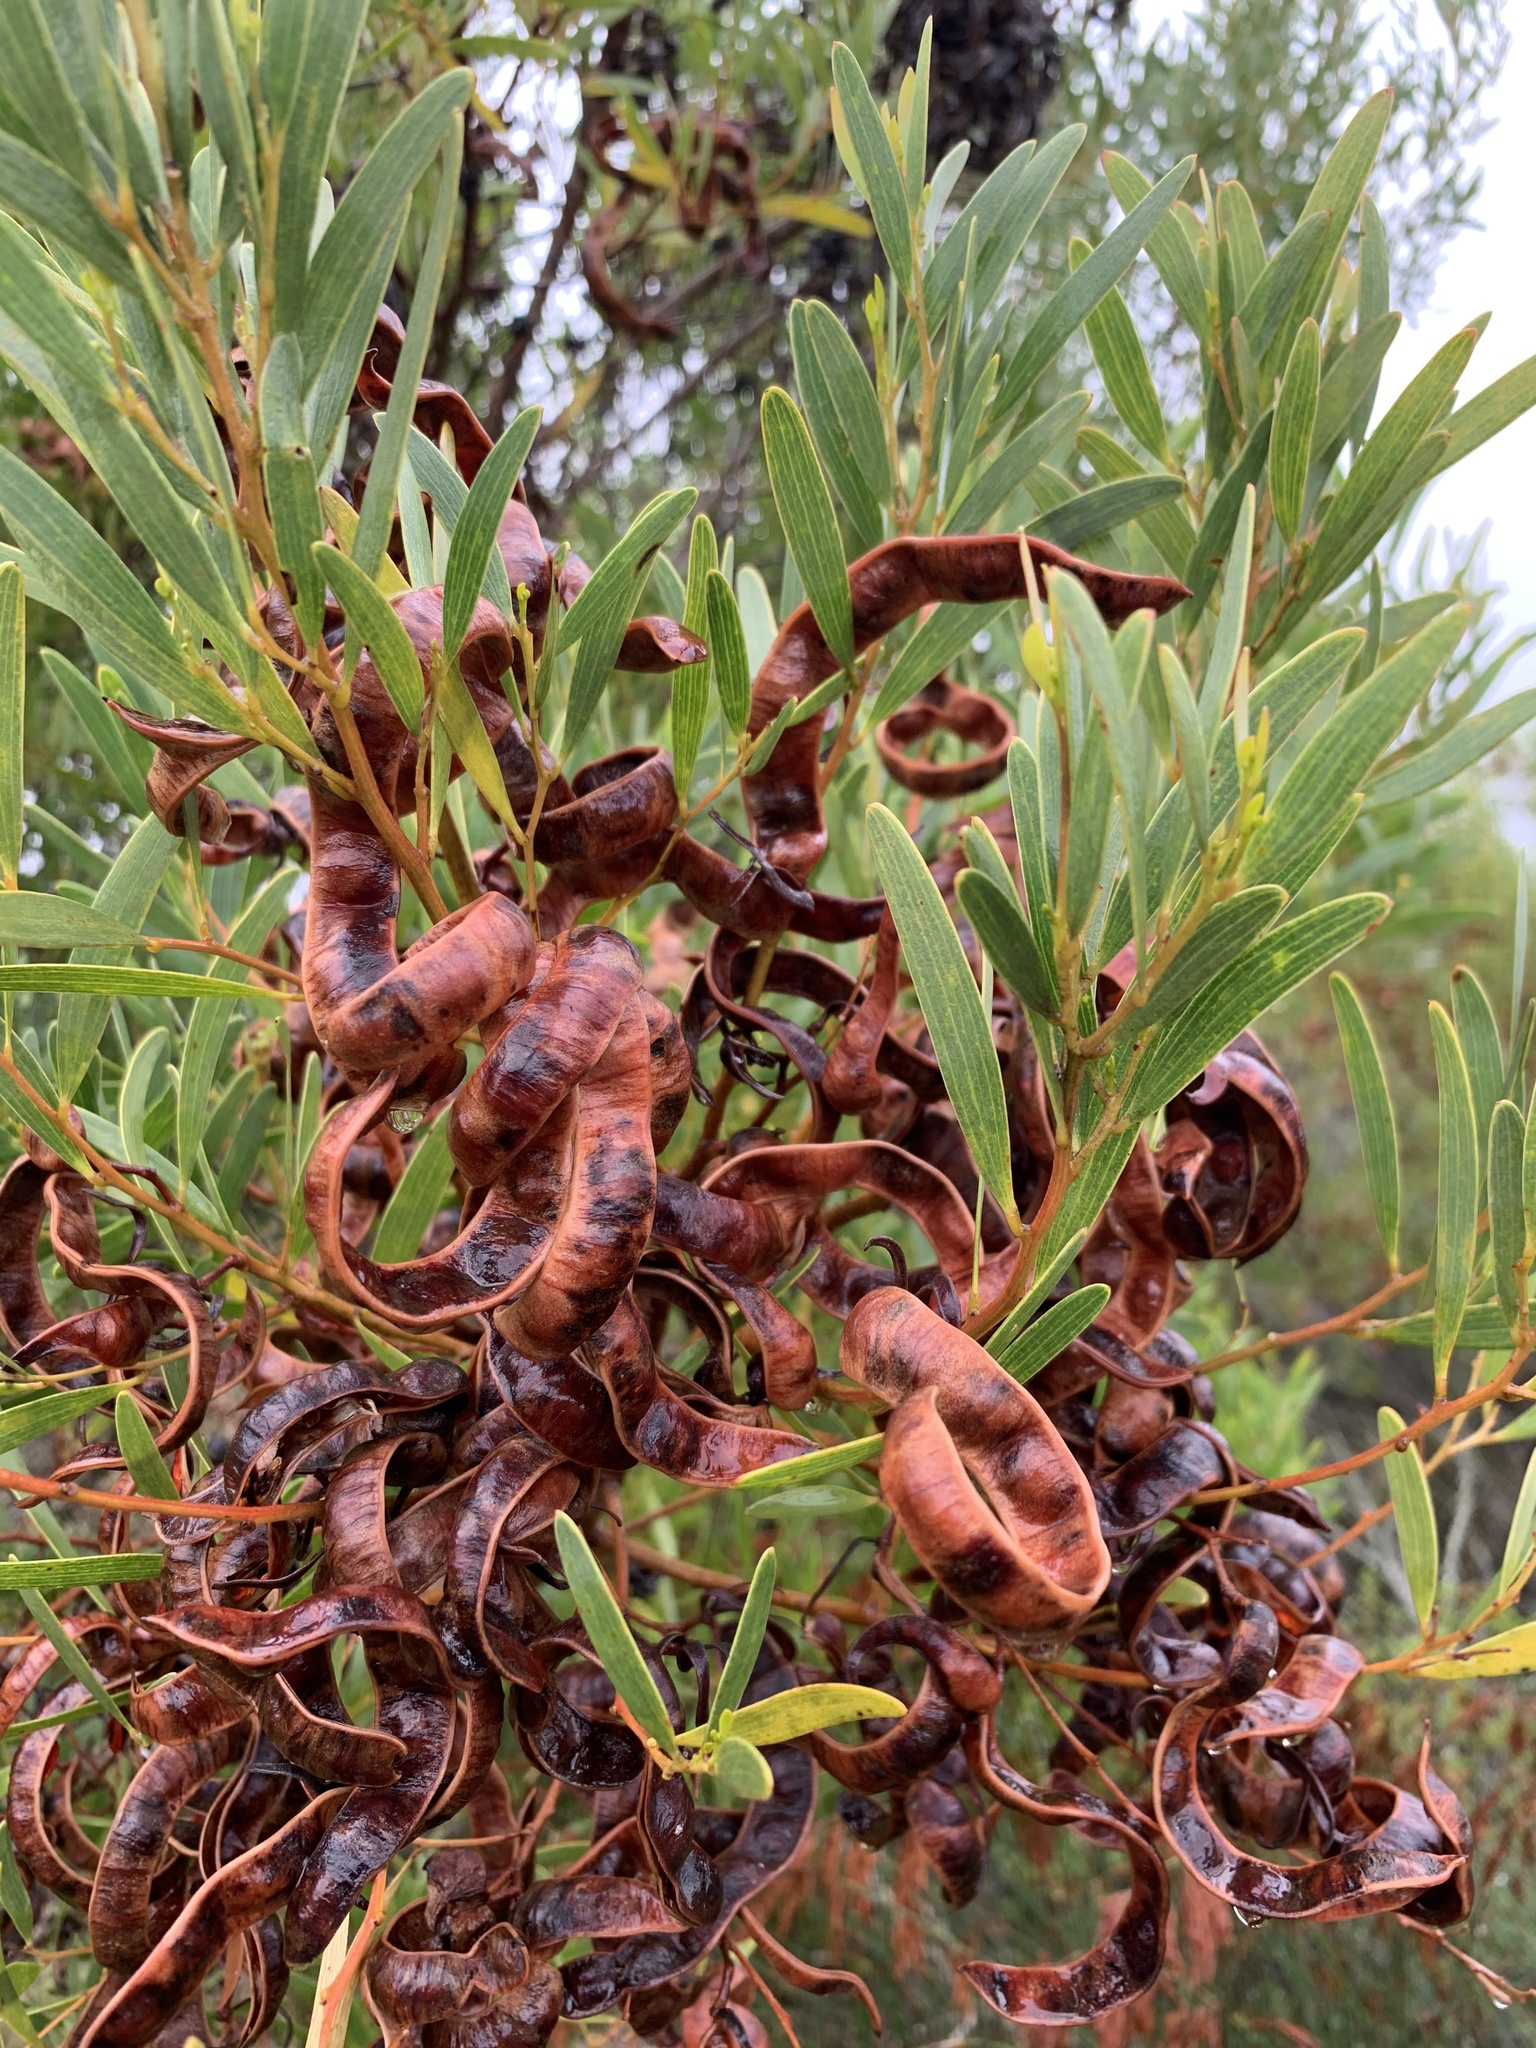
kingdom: Plantae
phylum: Tracheophyta
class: Magnoliopsida
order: Fabales
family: Fabaceae
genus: Acacia
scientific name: Acacia cyclops
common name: Coastal wattle
